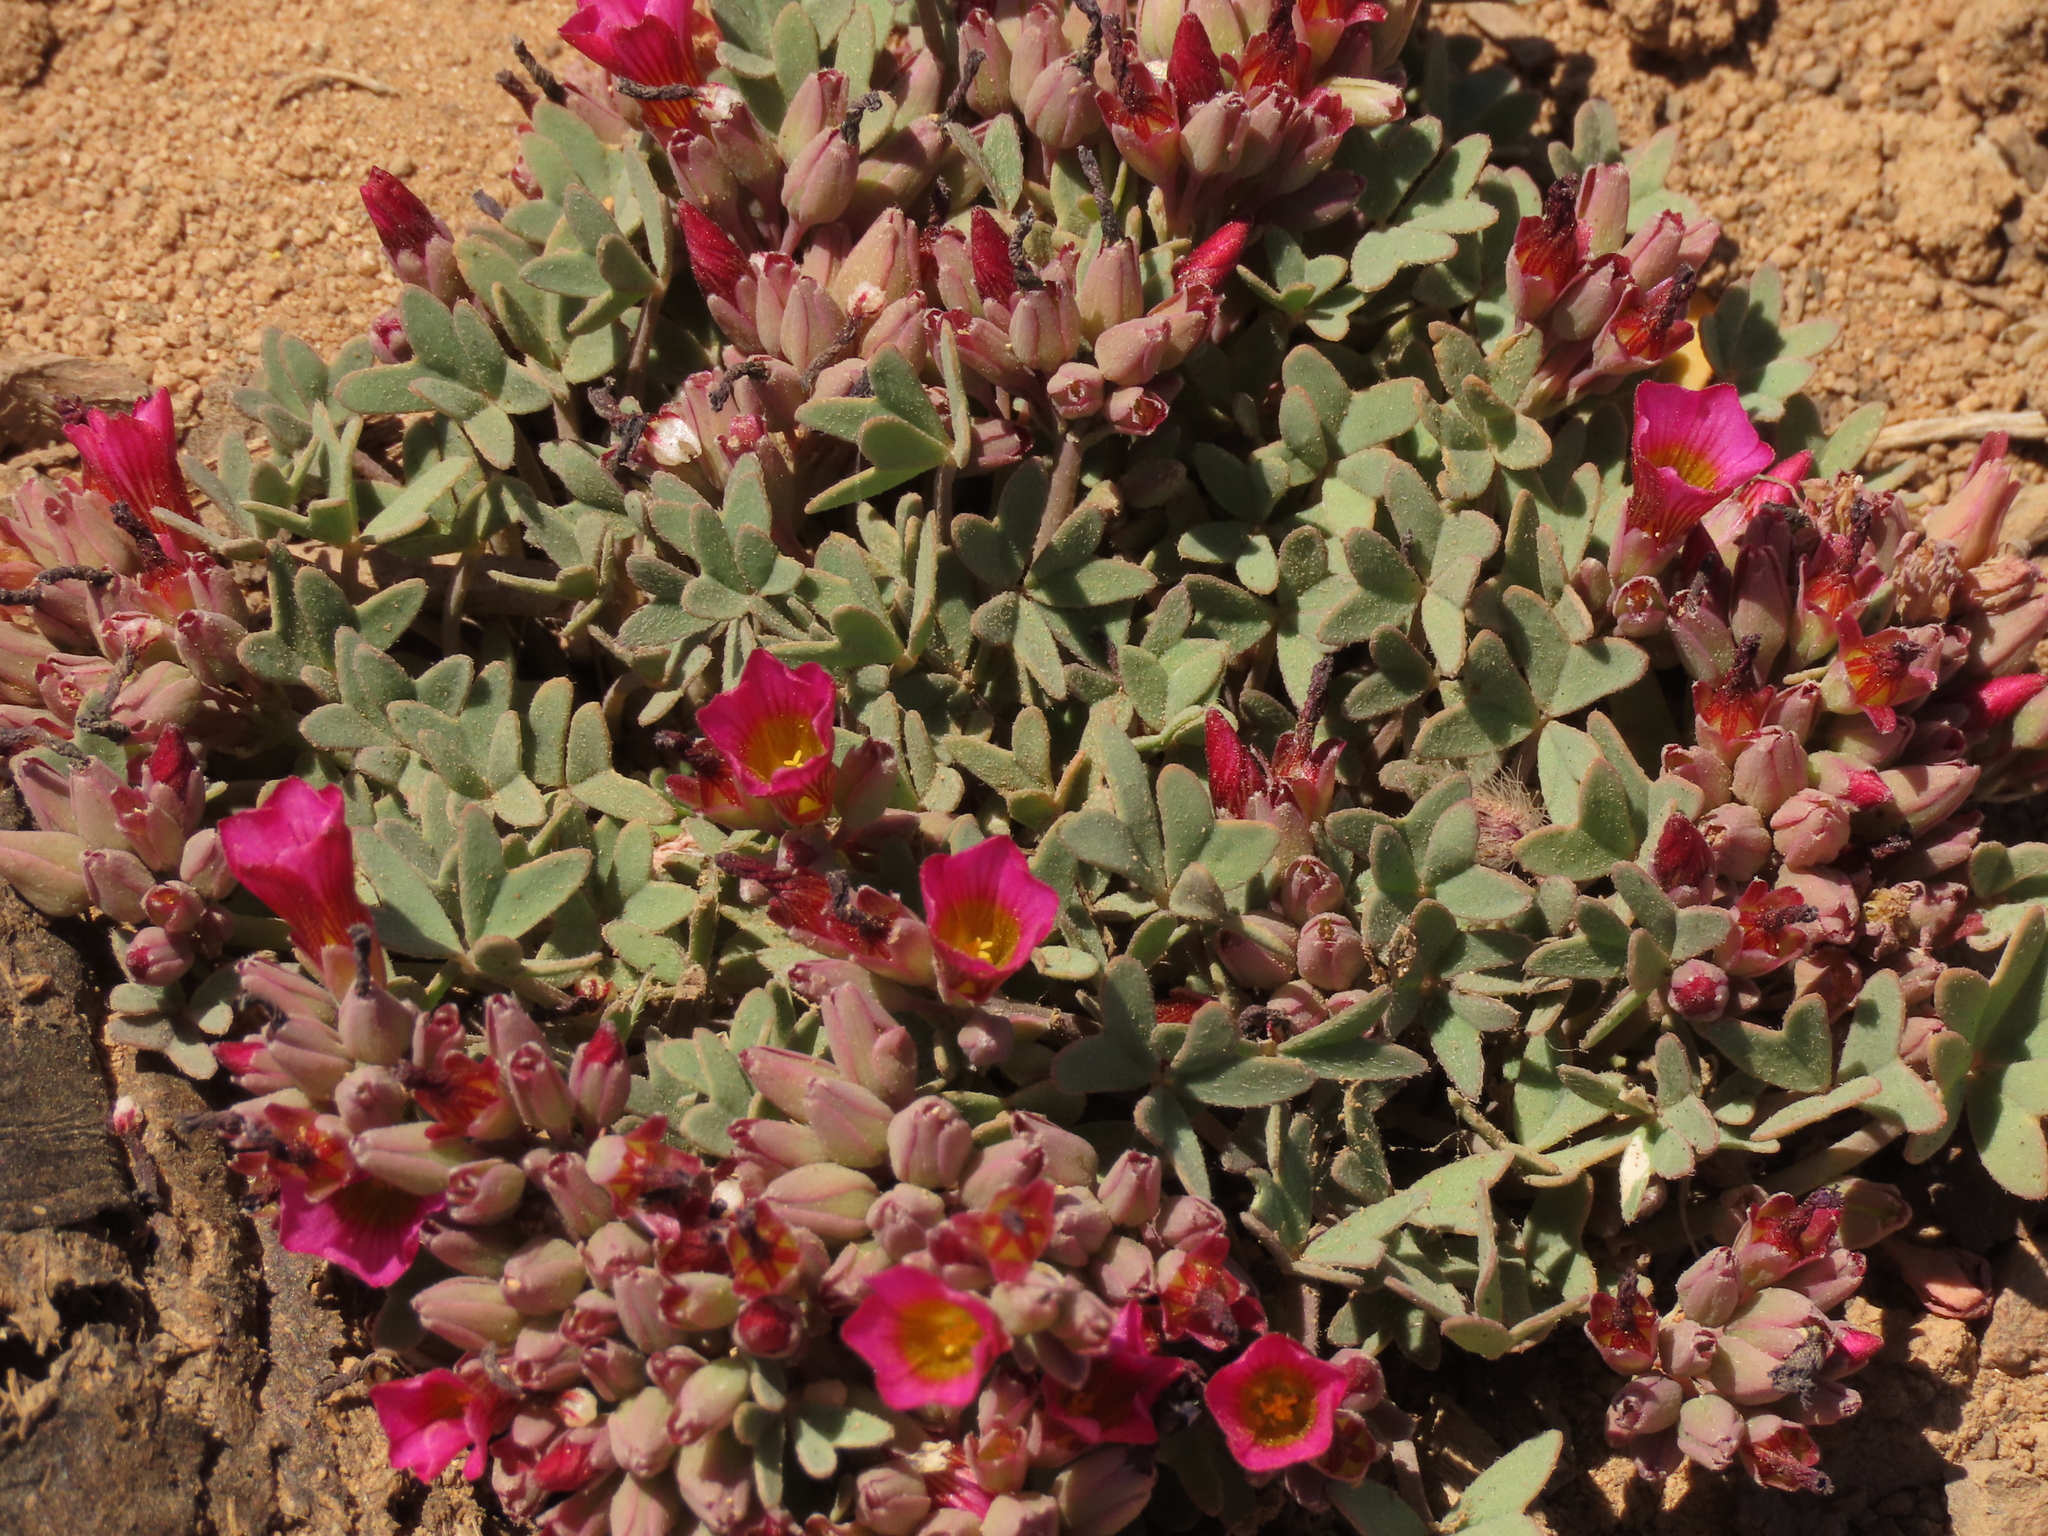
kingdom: Plantae
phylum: Tracheophyta
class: Magnoliopsida
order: Oxalidales
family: Oxalidaceae
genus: Oxalis
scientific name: Oxalis squamata
